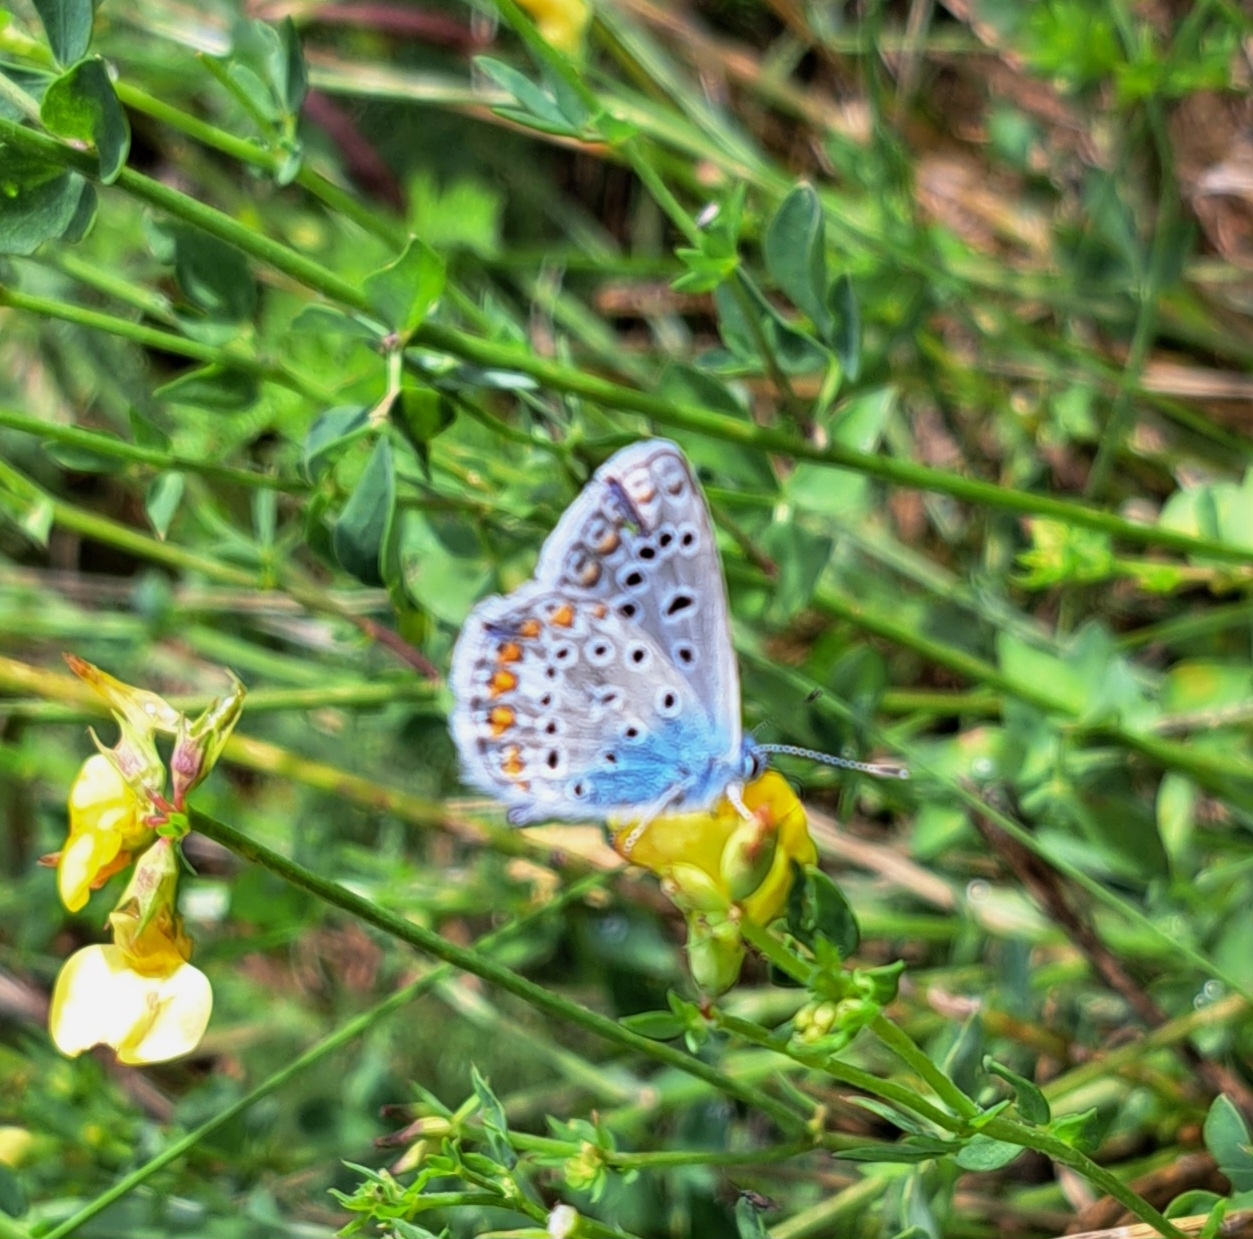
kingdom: Animalia
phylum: Arthropoda
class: Insecta
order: Lepidoptera
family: Lycaenidae
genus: Polyommatus
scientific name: Polyommatus icarus
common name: Common blue
